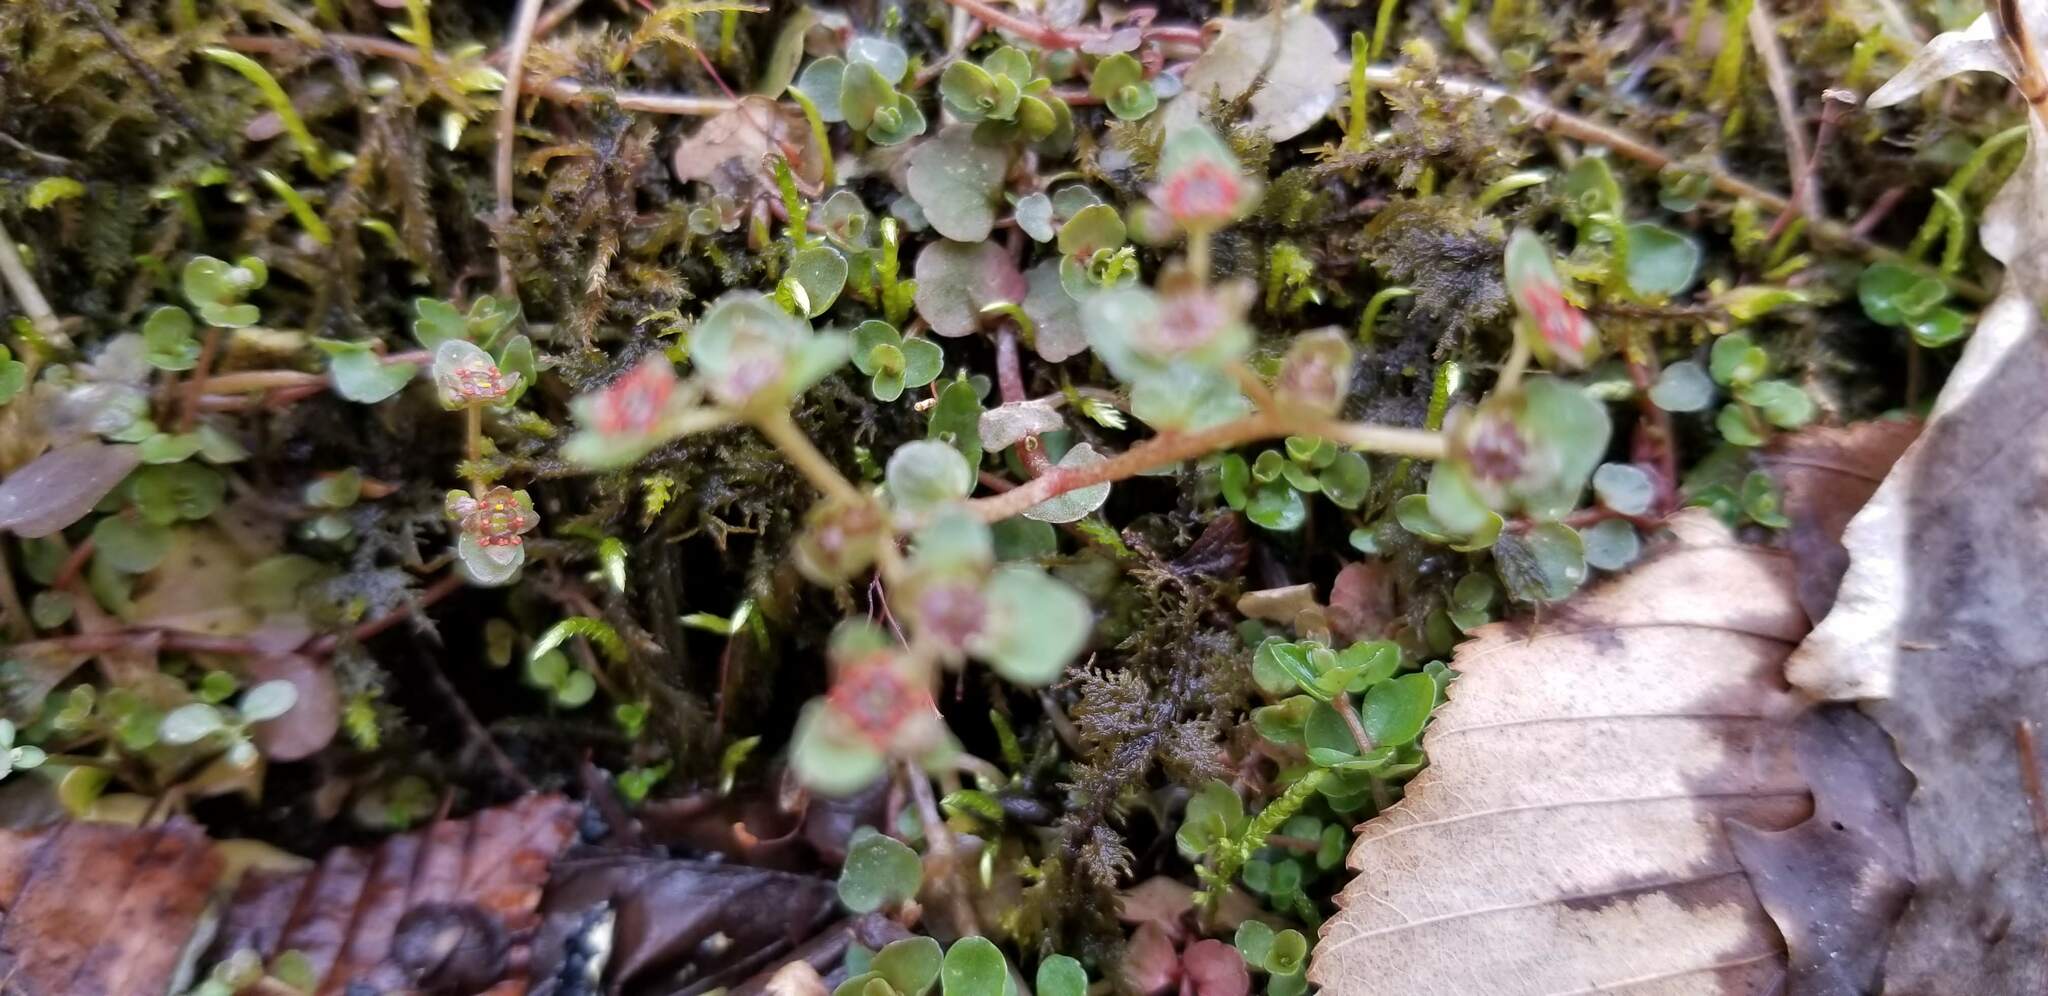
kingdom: Plantae
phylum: Tracheophyta
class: Magnoliopsida
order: Saxifragales
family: Saxifragaceae
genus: Chrysosplenium
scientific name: Chrysosplenium americanum
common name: American golden-saxifrage
